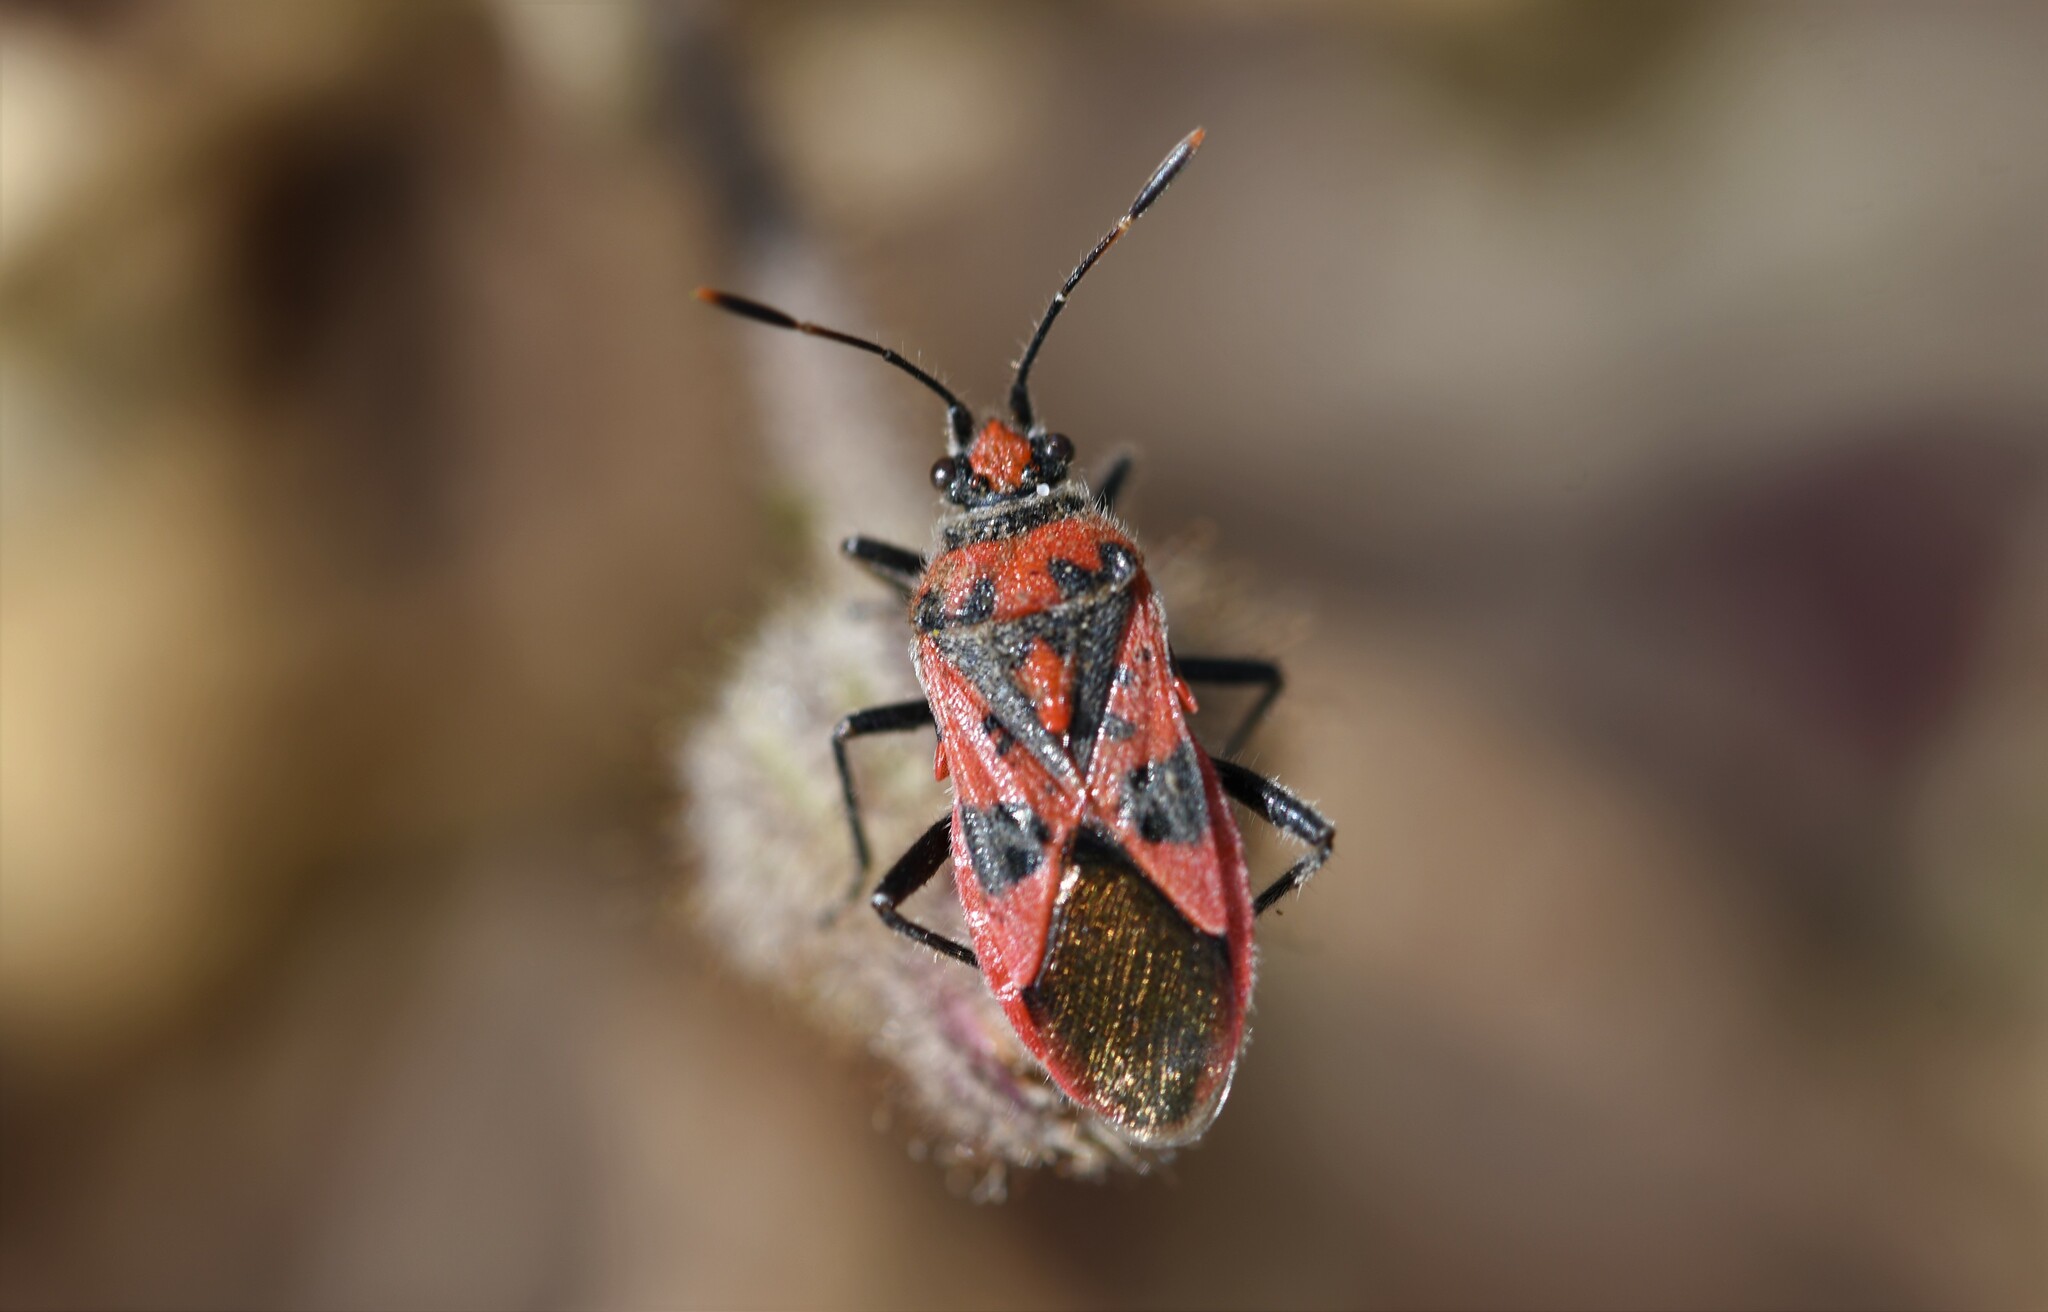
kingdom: Animalia
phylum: Arthropoda
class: Insecta
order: Hemiptera
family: Rhopalidae
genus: Corizus
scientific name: Corizus hyoscyami
